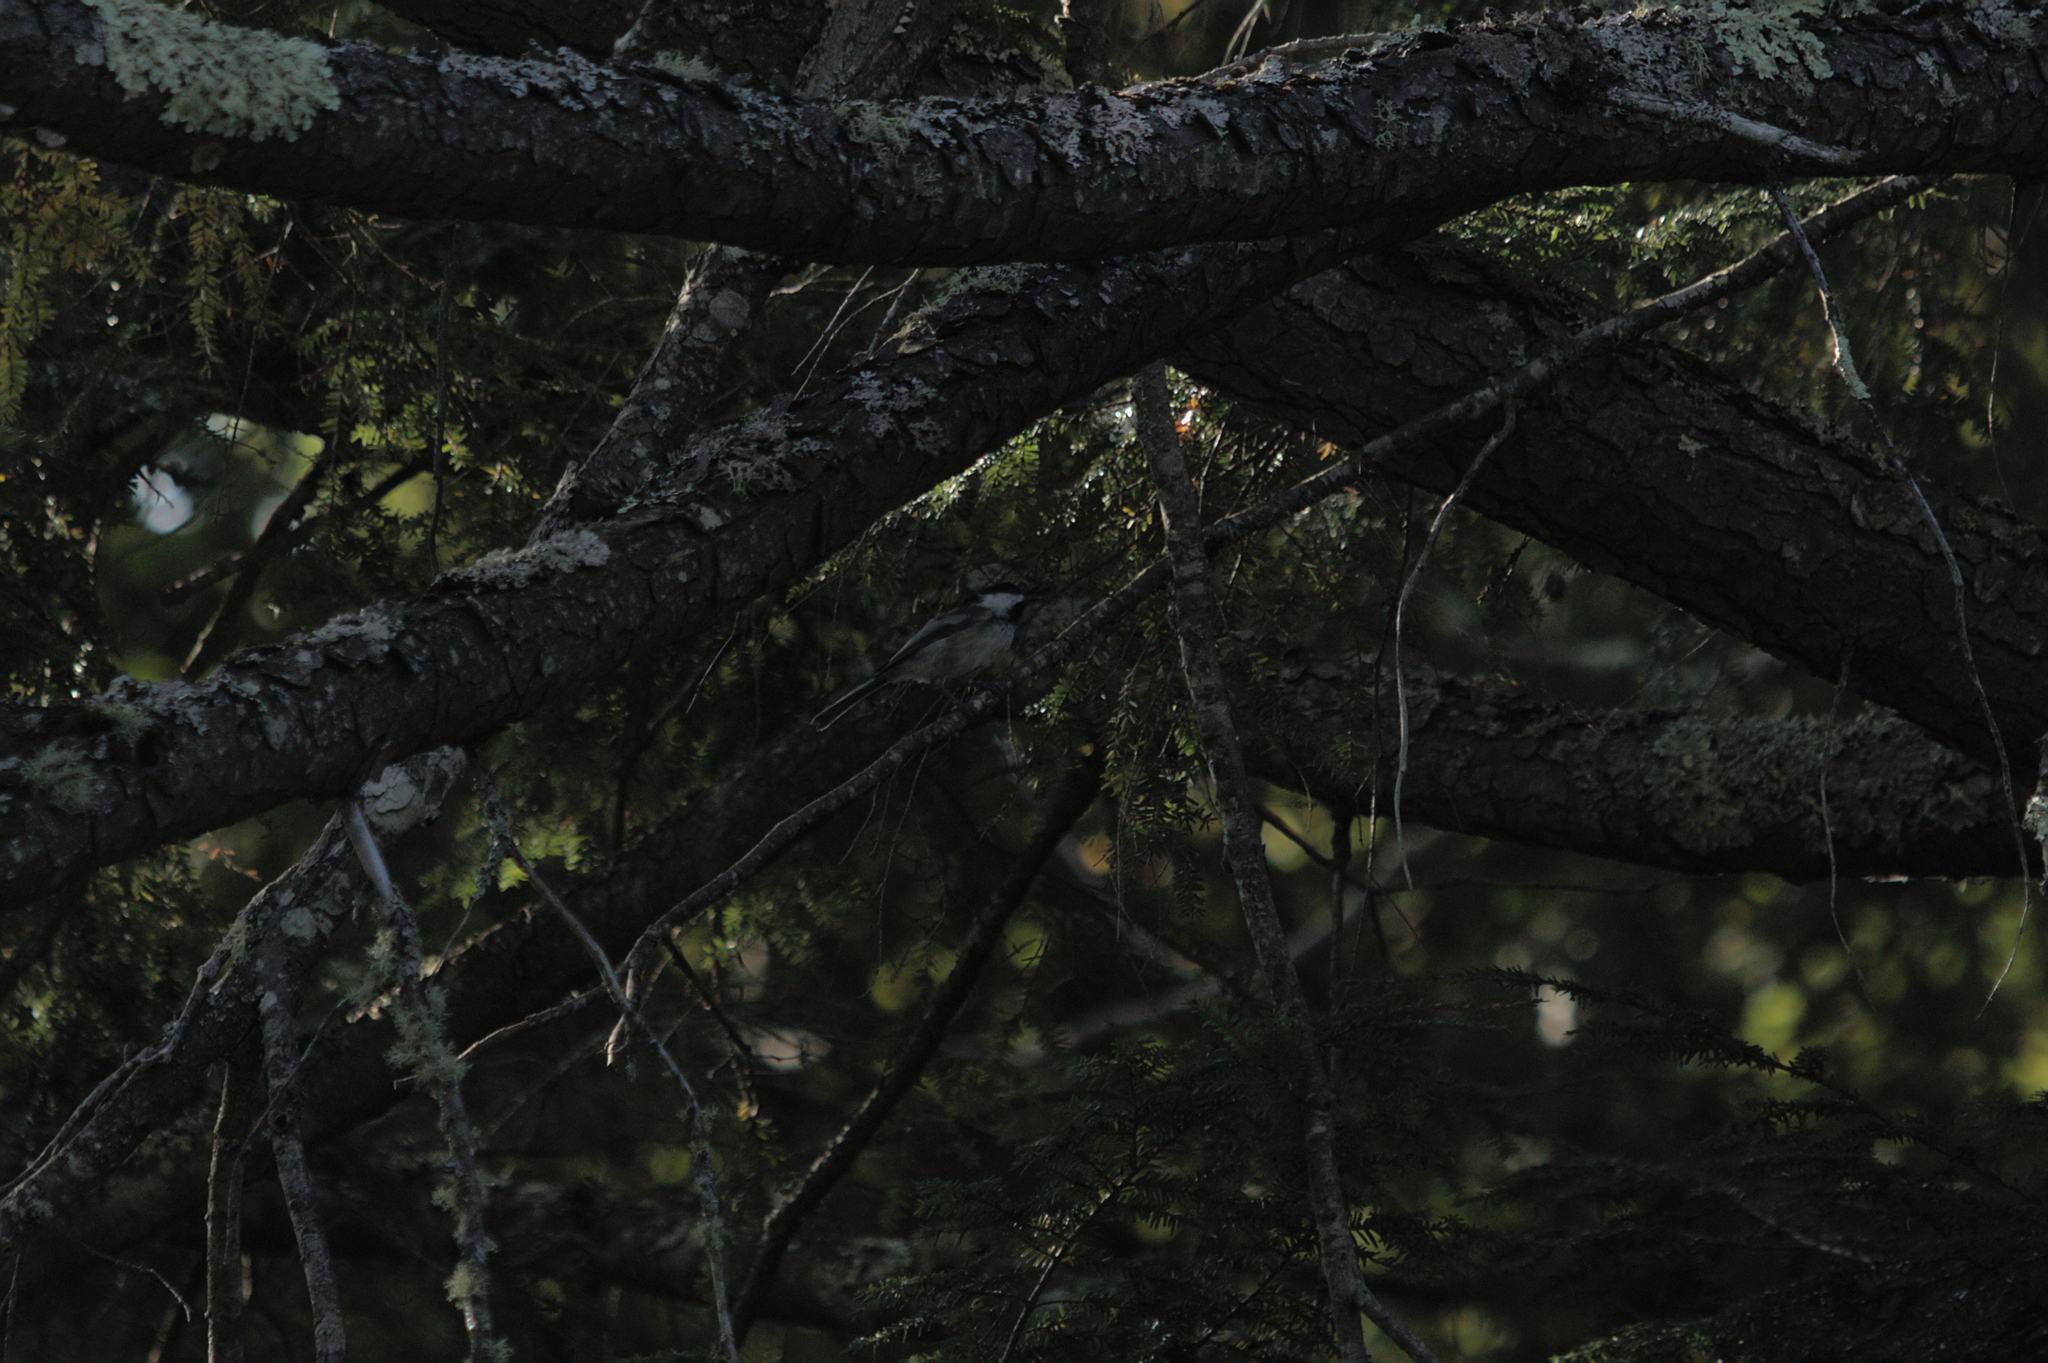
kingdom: Animalia
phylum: Chordata
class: Aves
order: Passeriformes
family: Paridae
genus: Poecile
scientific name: Poecile atricapillus
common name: Black-capped chickadee
